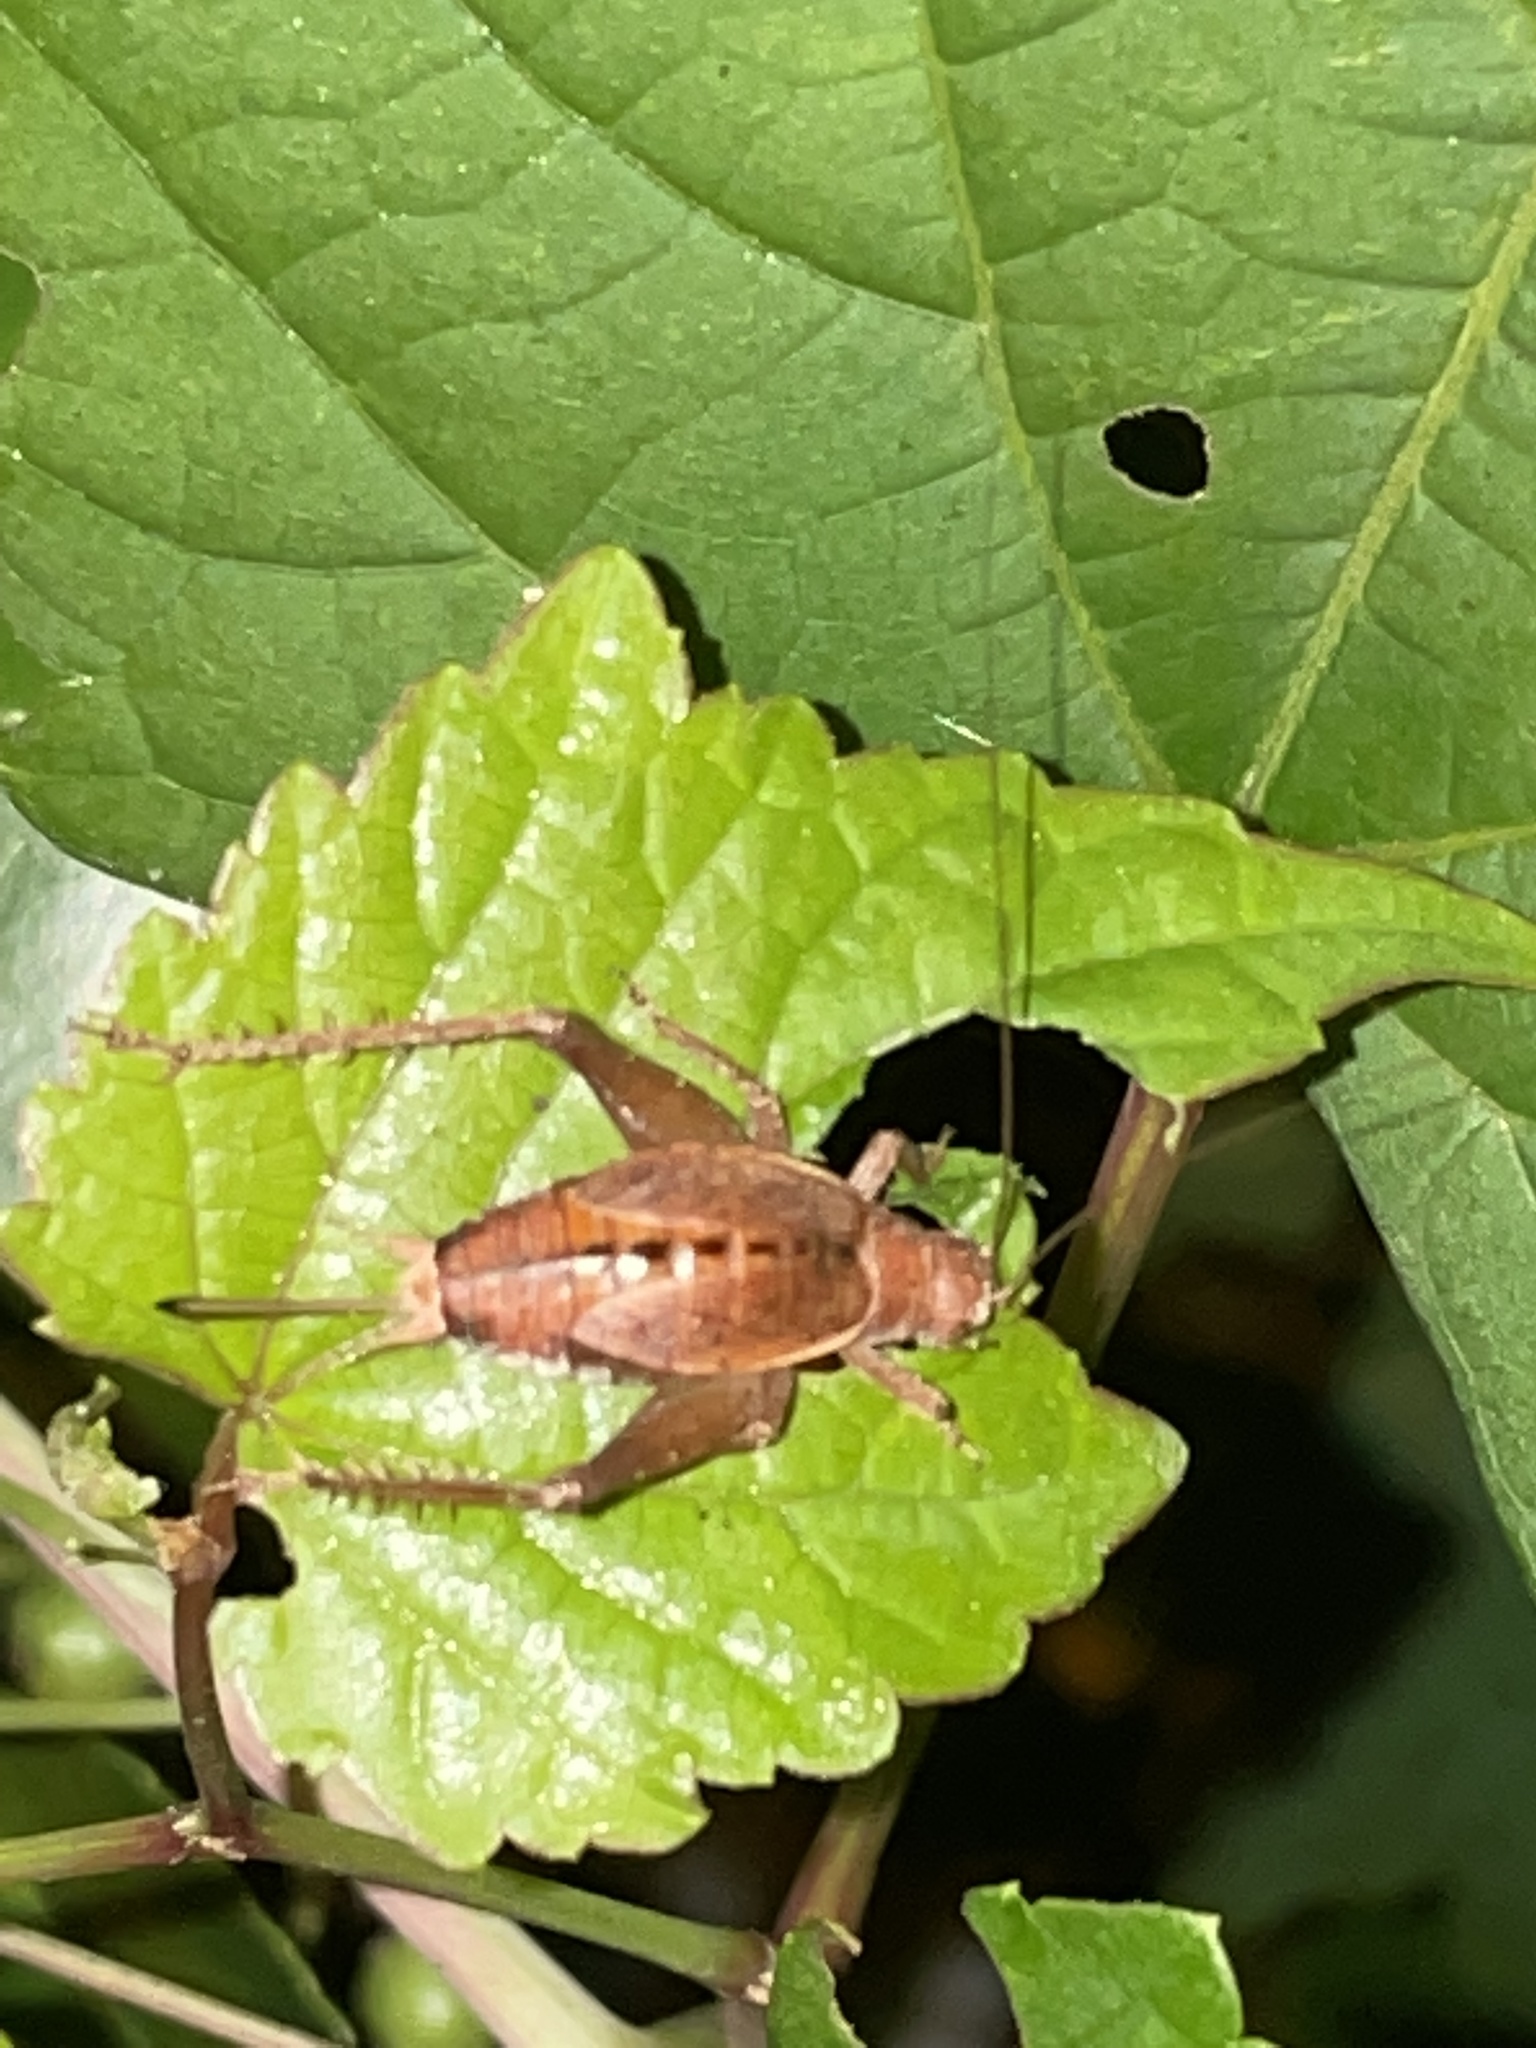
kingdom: Animalia
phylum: Arthropoda
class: Insecta
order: Orthoptera
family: Gryllidae
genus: Hapithus
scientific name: Hapithus agitator
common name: Restless bush cricket
